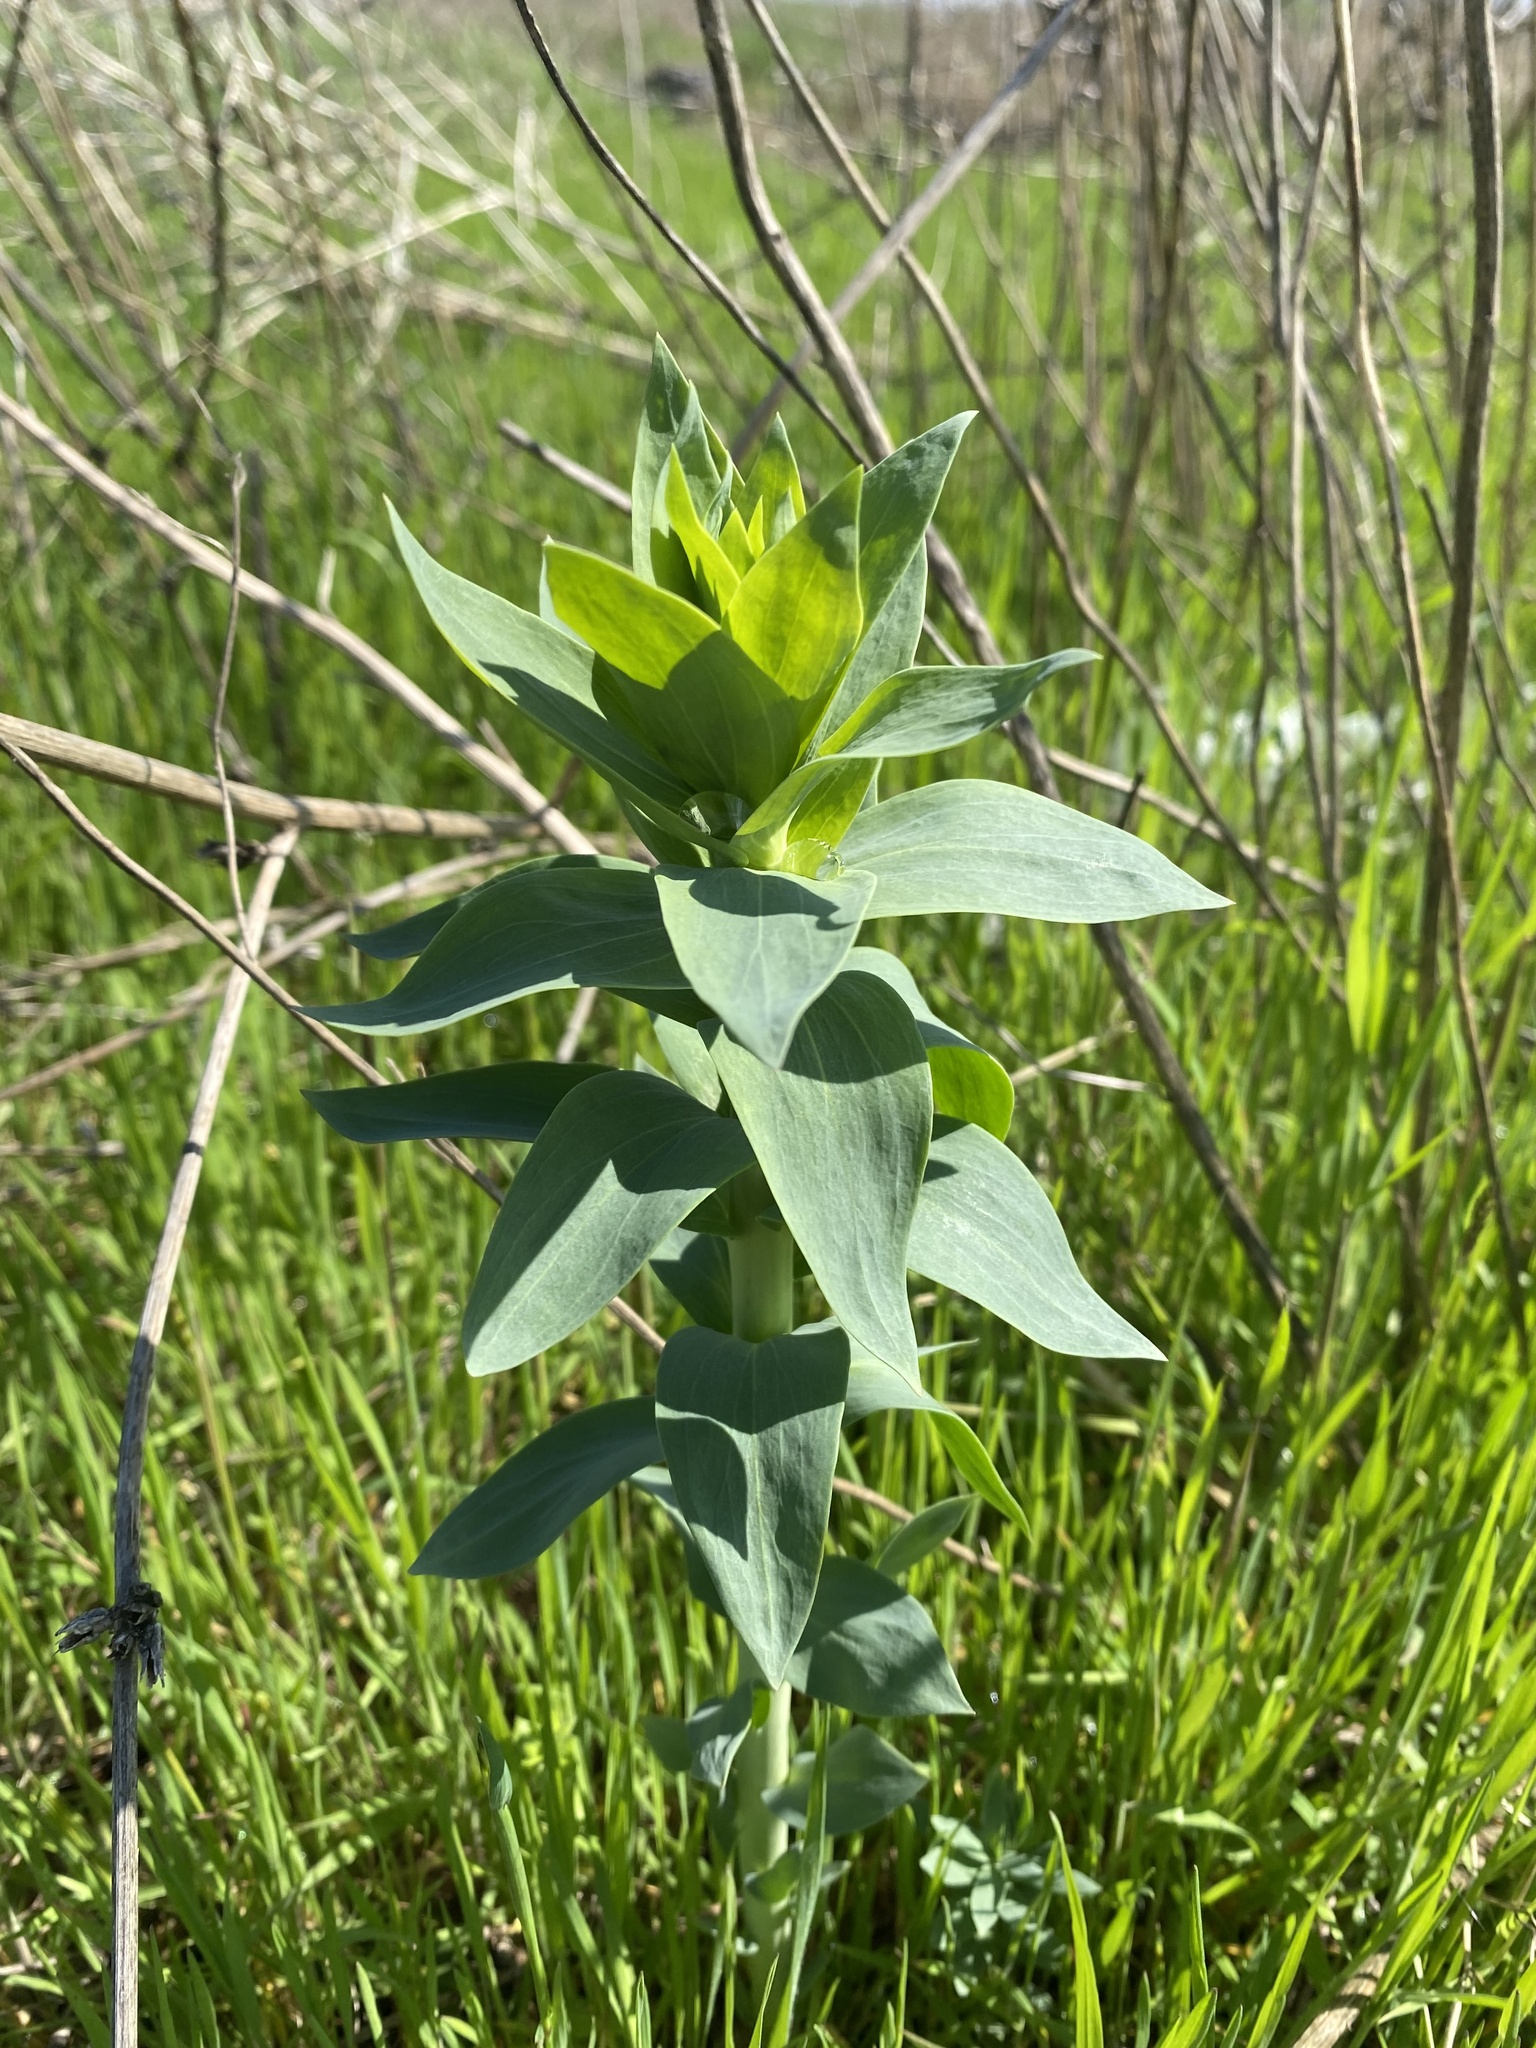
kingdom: Plantae
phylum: Tracheophyta
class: Magnoliopsida
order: Lamiales
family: Plantaginaceae
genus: Linaria
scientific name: Linaria genistifolia
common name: Broomleaf toadflax
